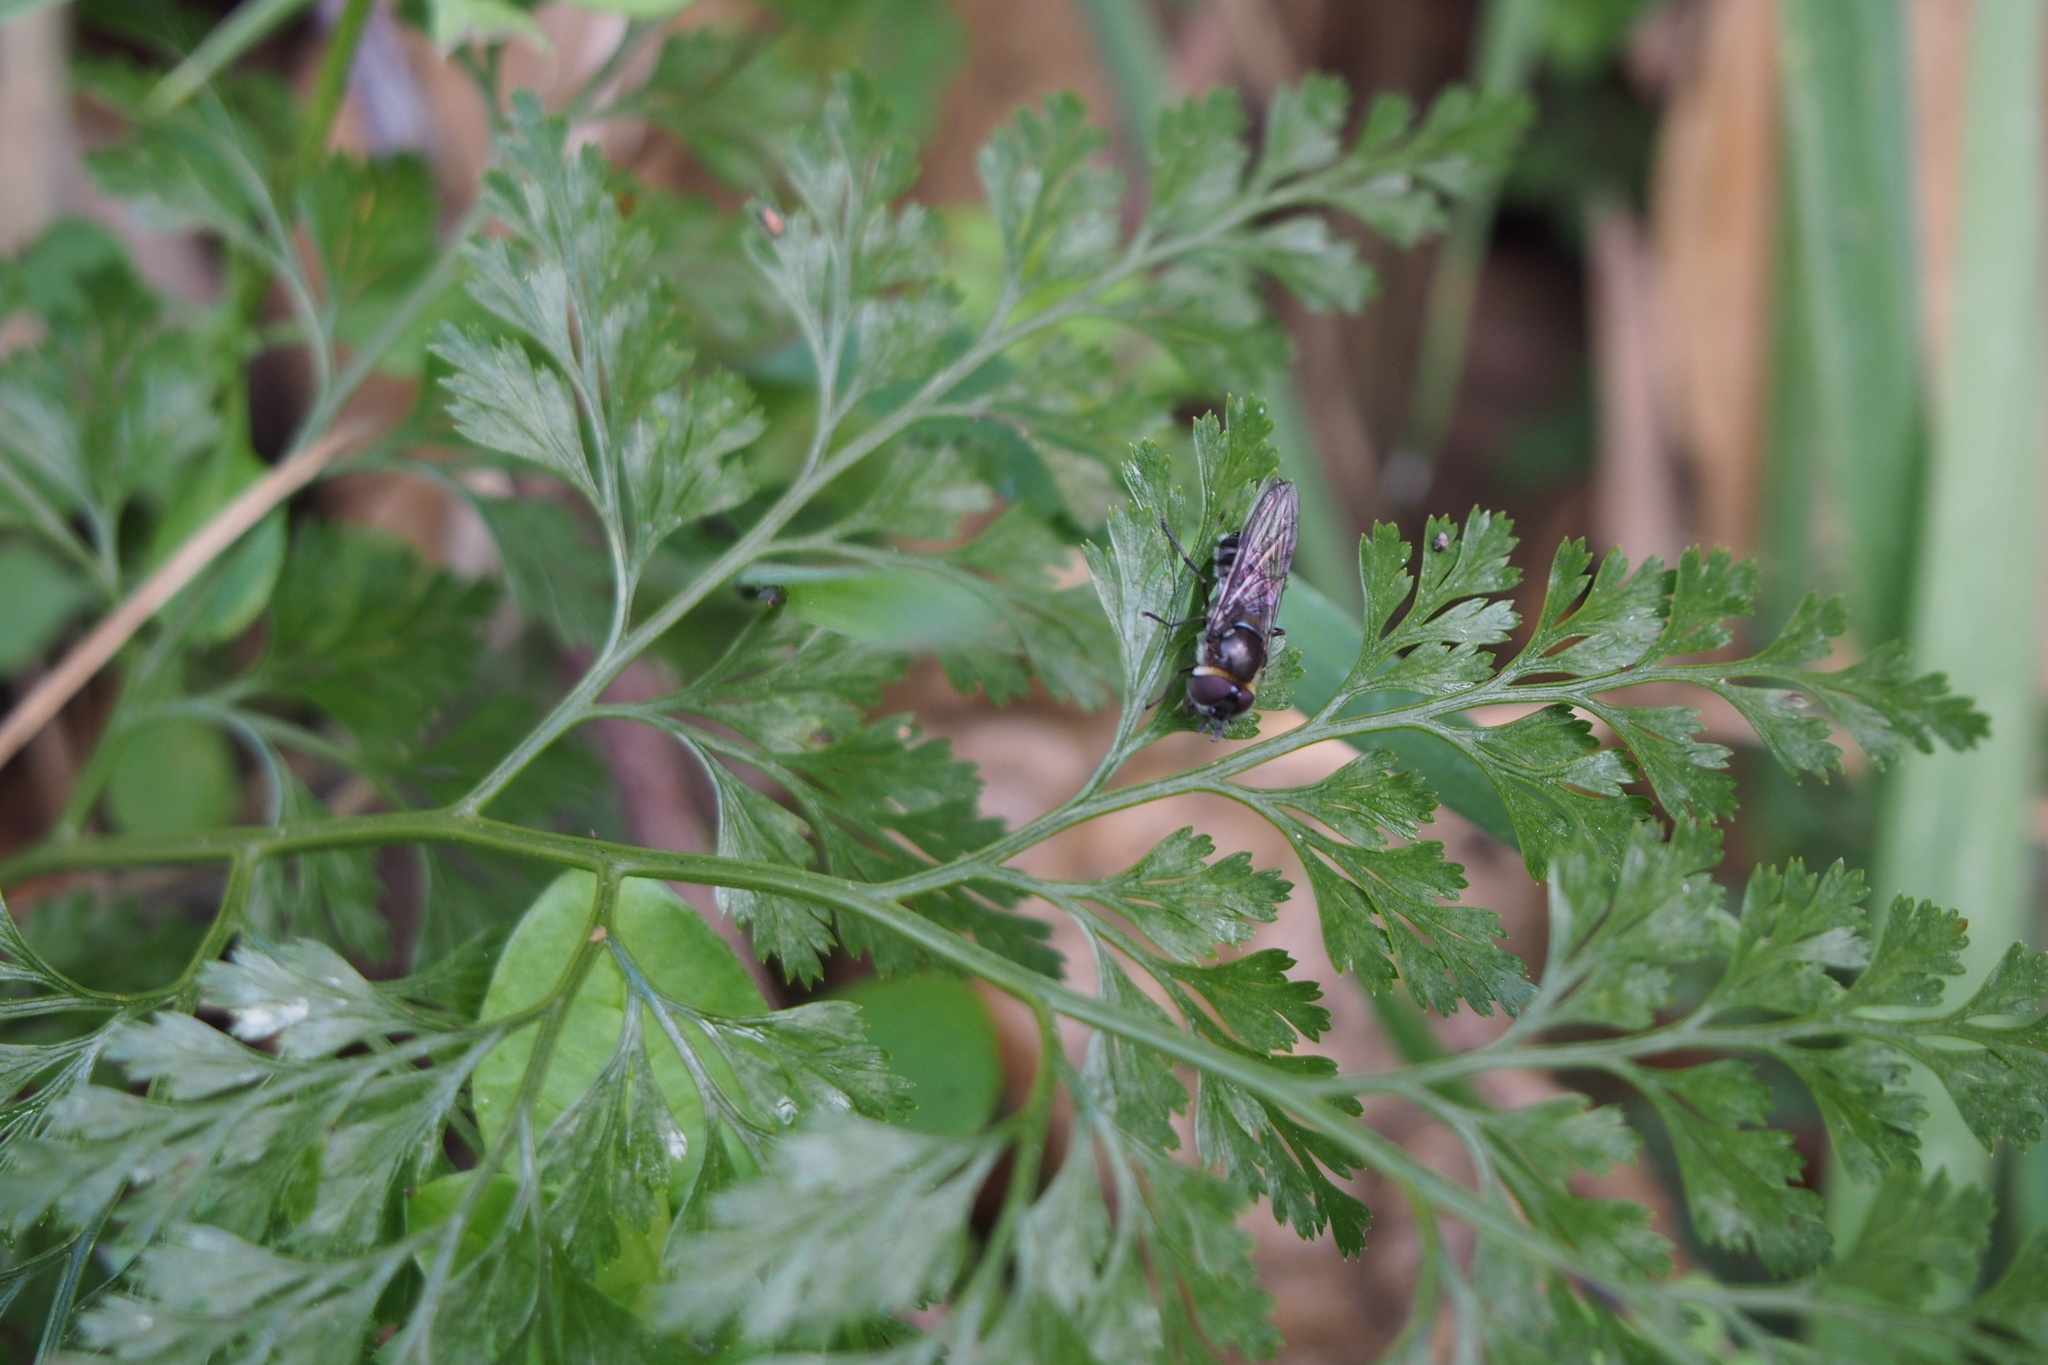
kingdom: Animalia
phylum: Arthropoda
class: Insecta
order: Diptera
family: Syrphidae
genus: Betasyrphus
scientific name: Betasyrphus serarius
